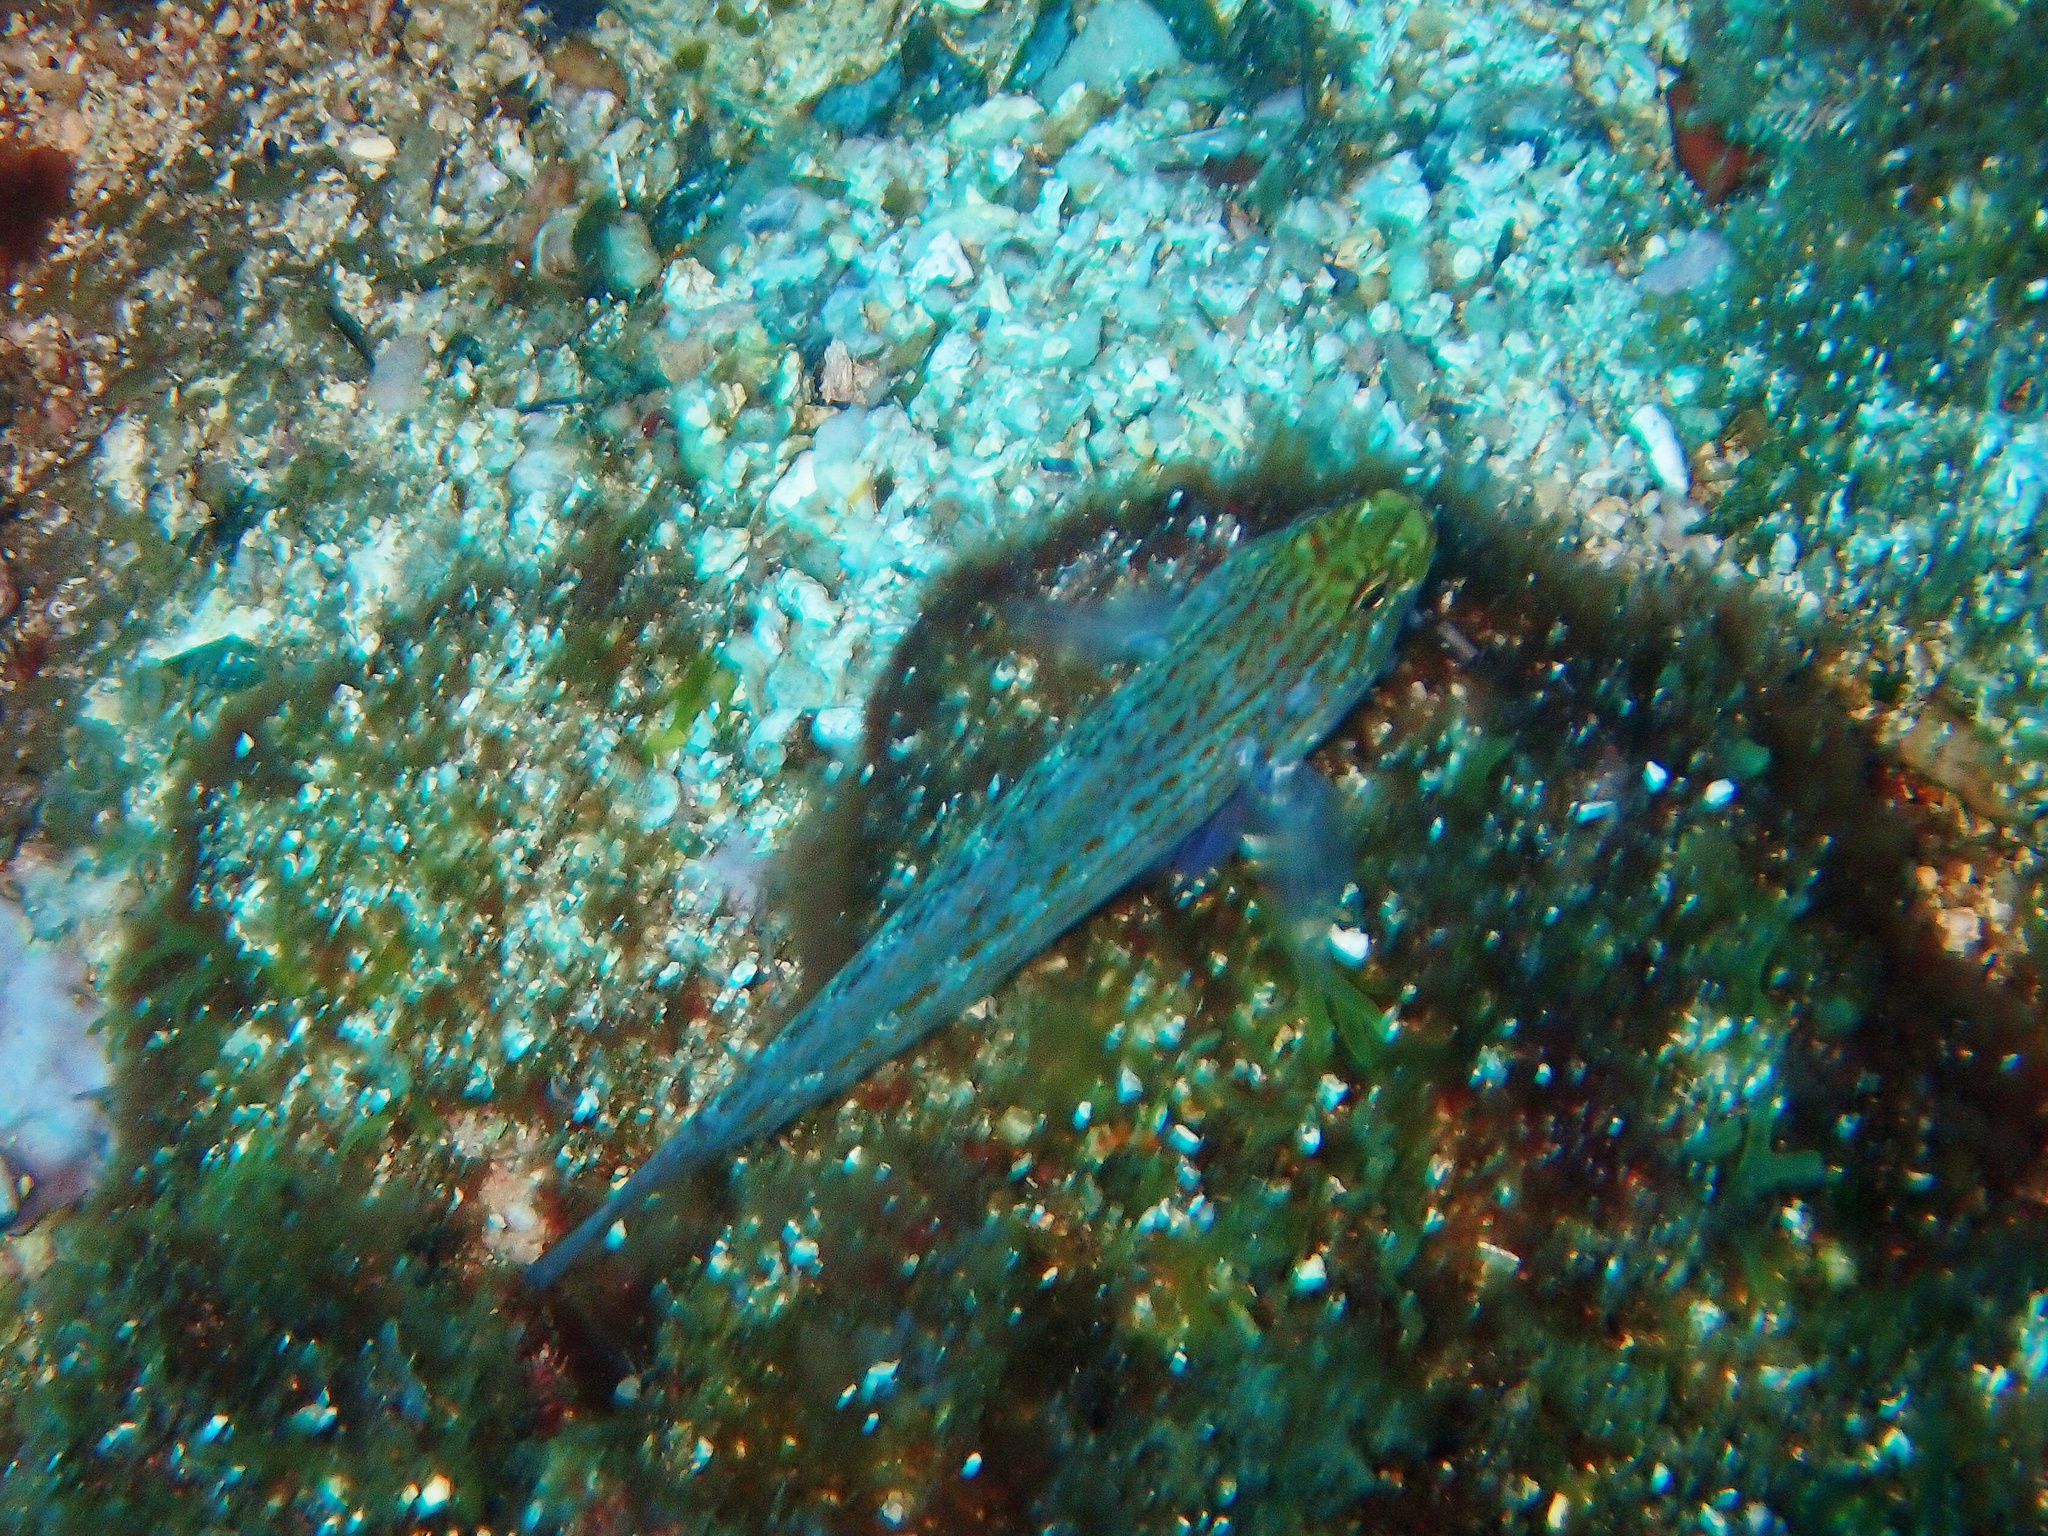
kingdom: Animalia
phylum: Chordata
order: Perciformes
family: Gobiidae
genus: Gobius
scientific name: Gobius xanthocephalus
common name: Golden goby
